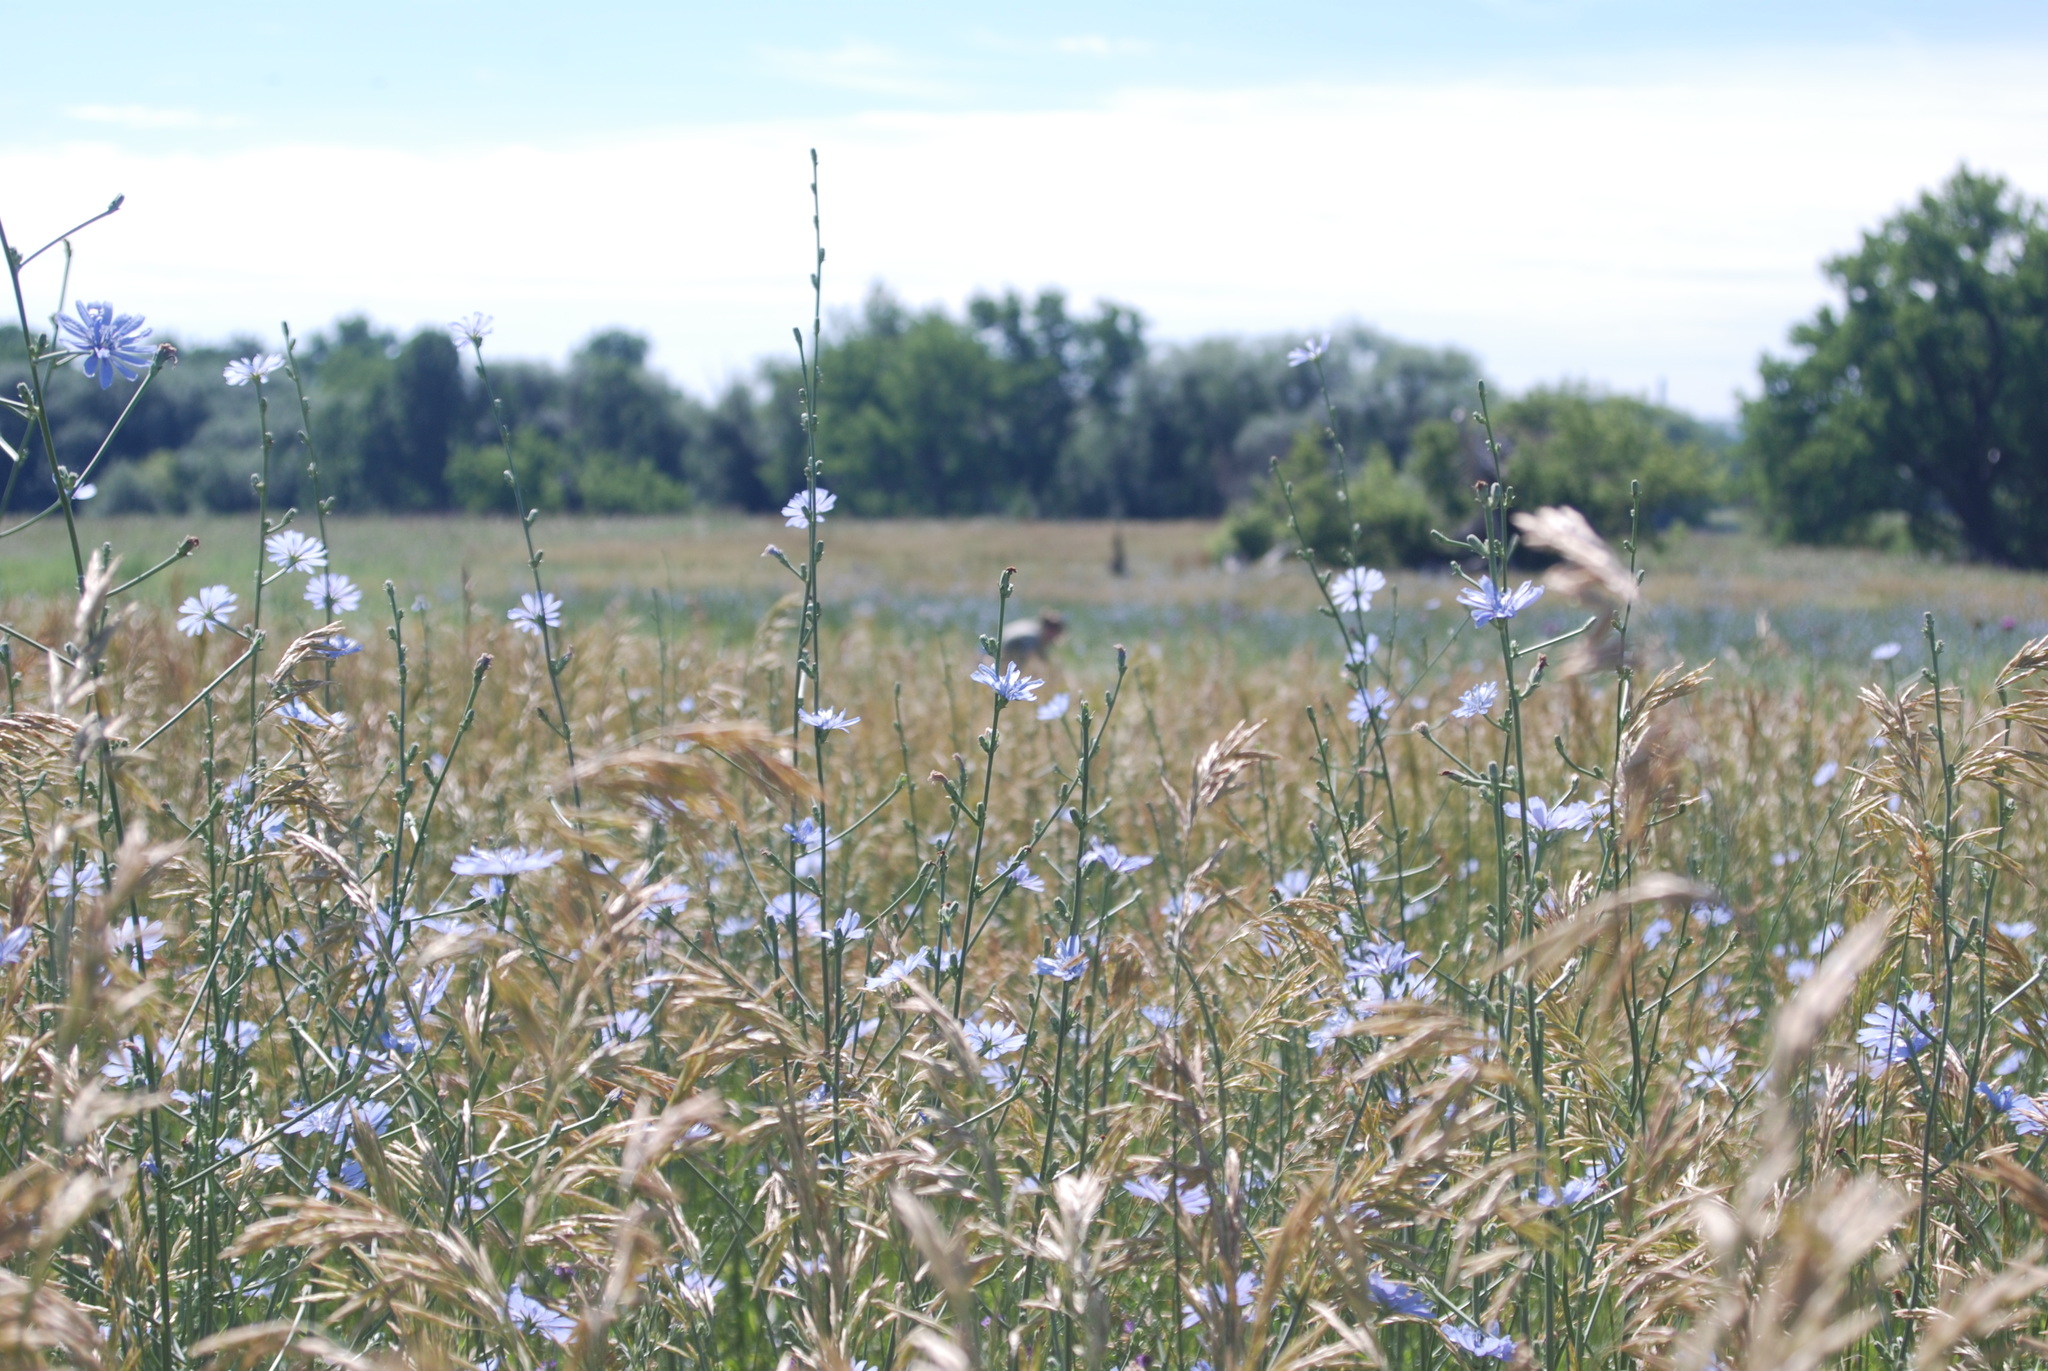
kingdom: Plantae
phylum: Tracheophyta
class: Magnoliopsida
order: Asterales
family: Asteraceae
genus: Cichorium
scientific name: Cichorium intybus
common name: Chicory
